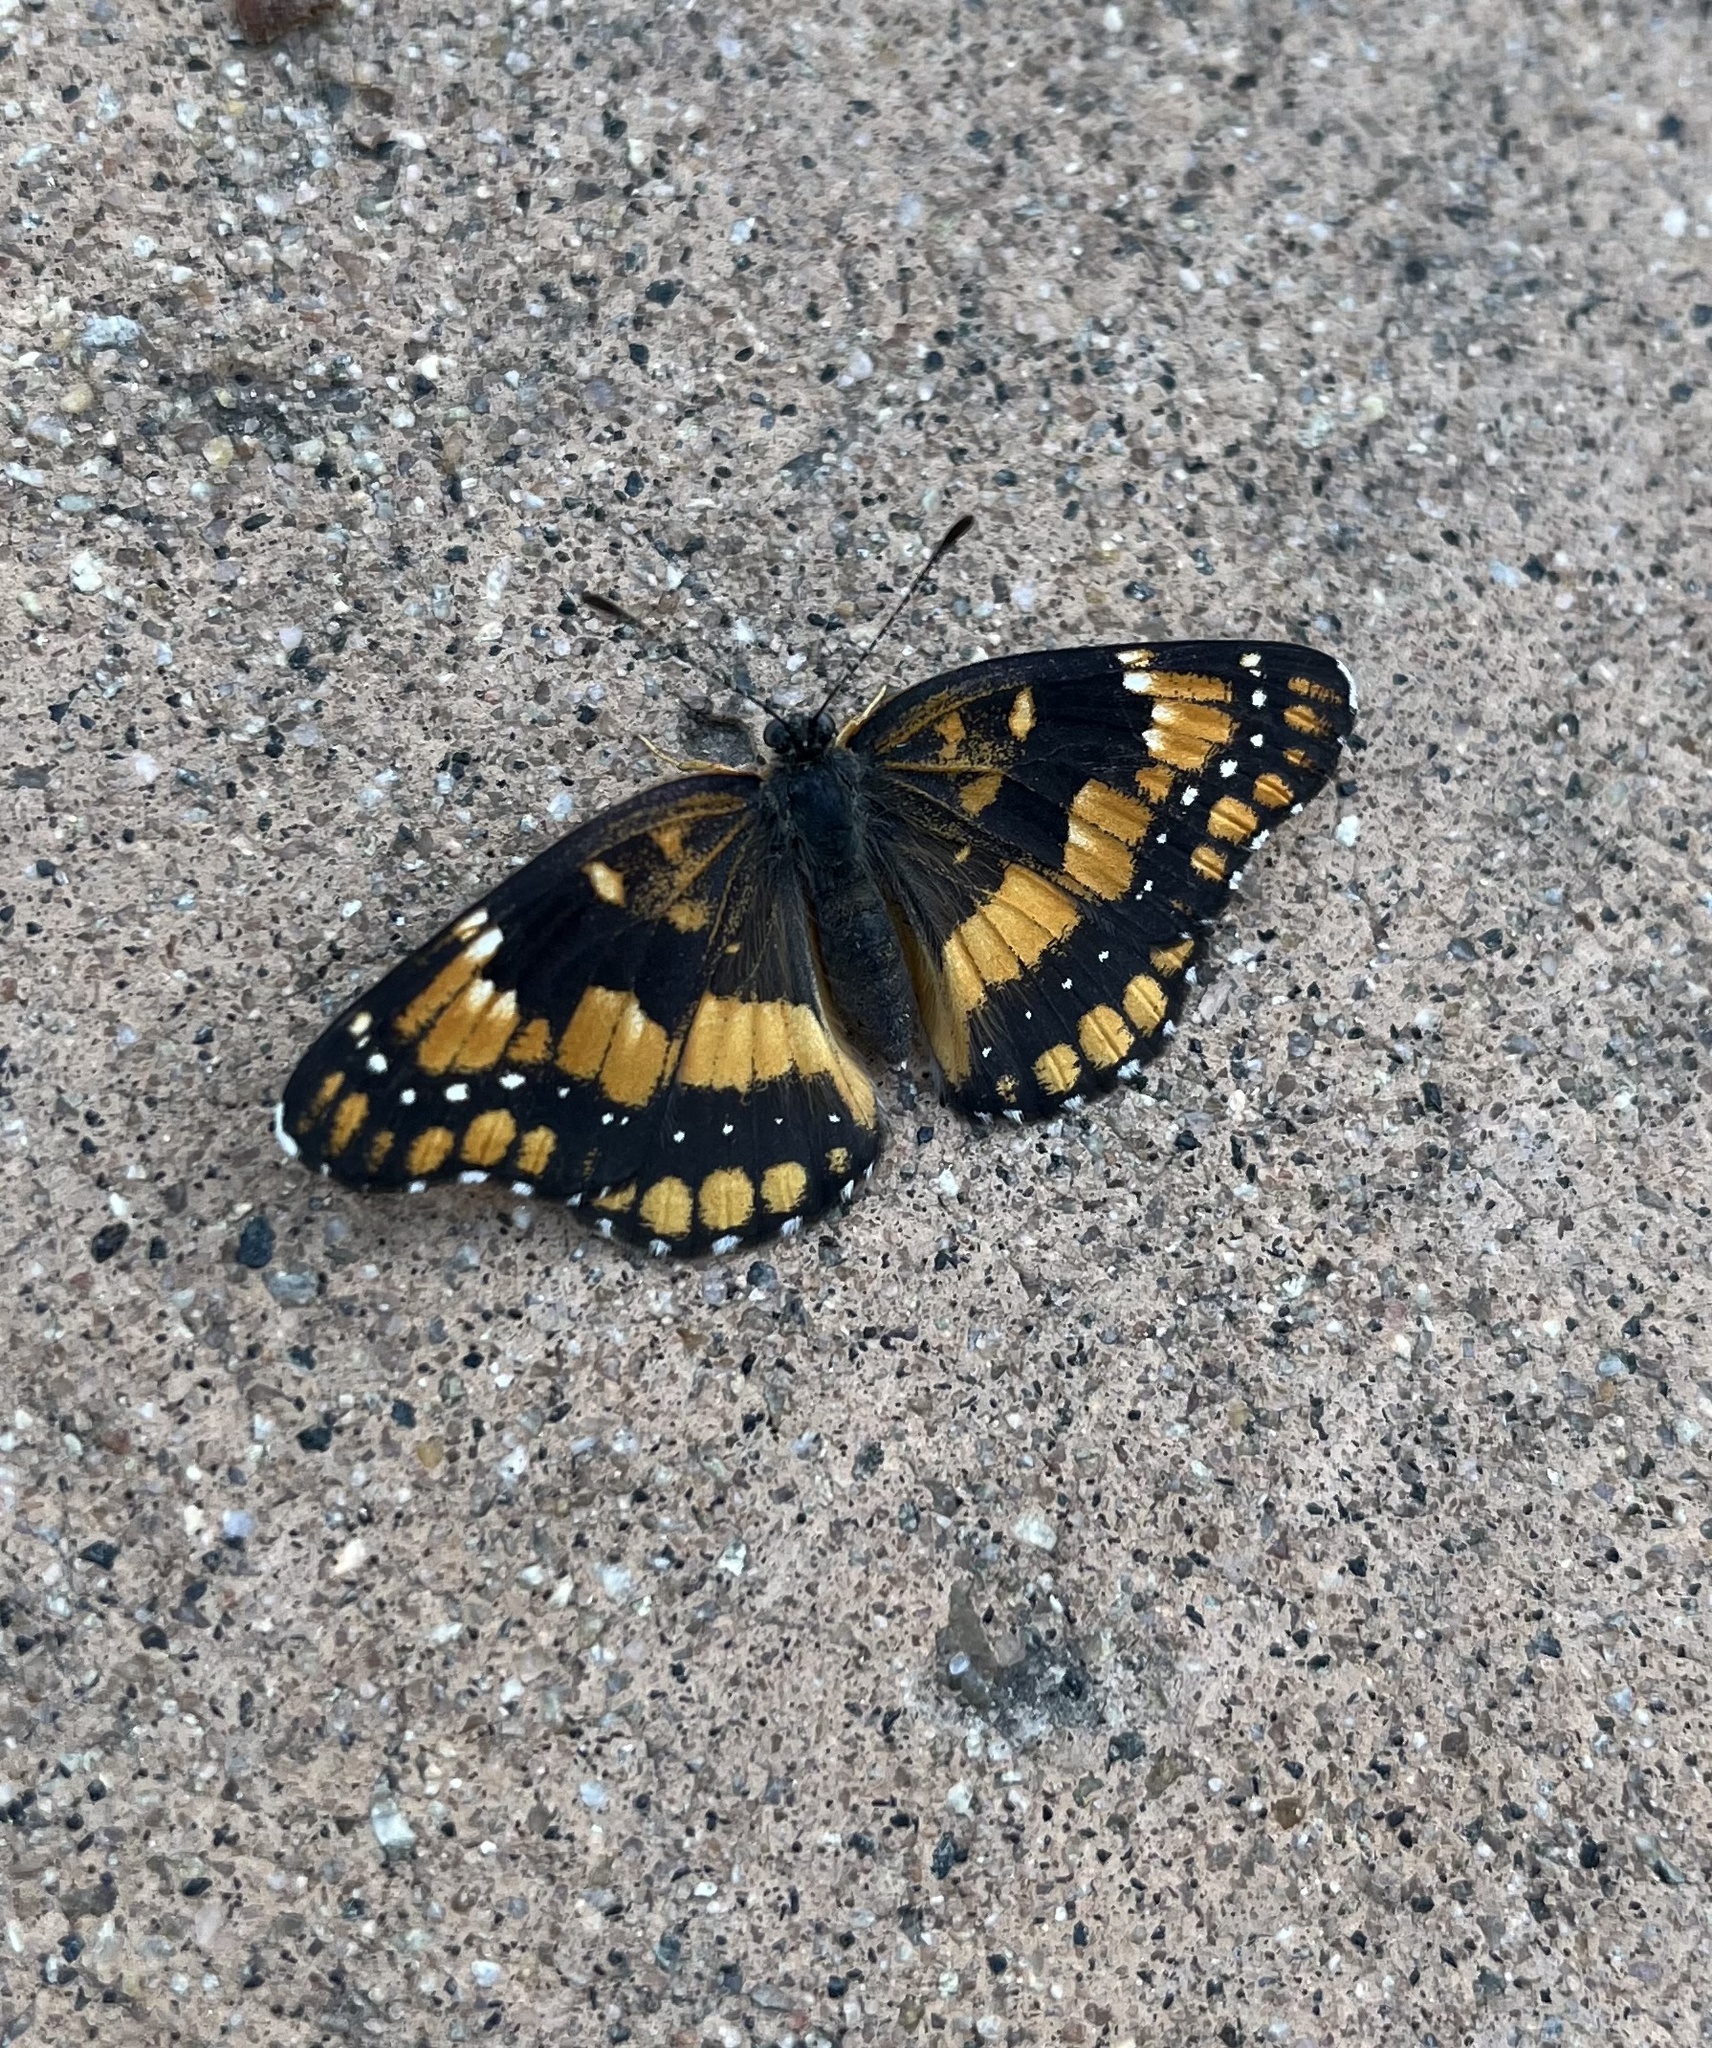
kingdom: Animalia
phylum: Arthropoda
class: Insecta
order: Lepidoptera
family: Nymphalidae
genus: Chlosyne
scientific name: Chlosyne californica
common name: California patch
